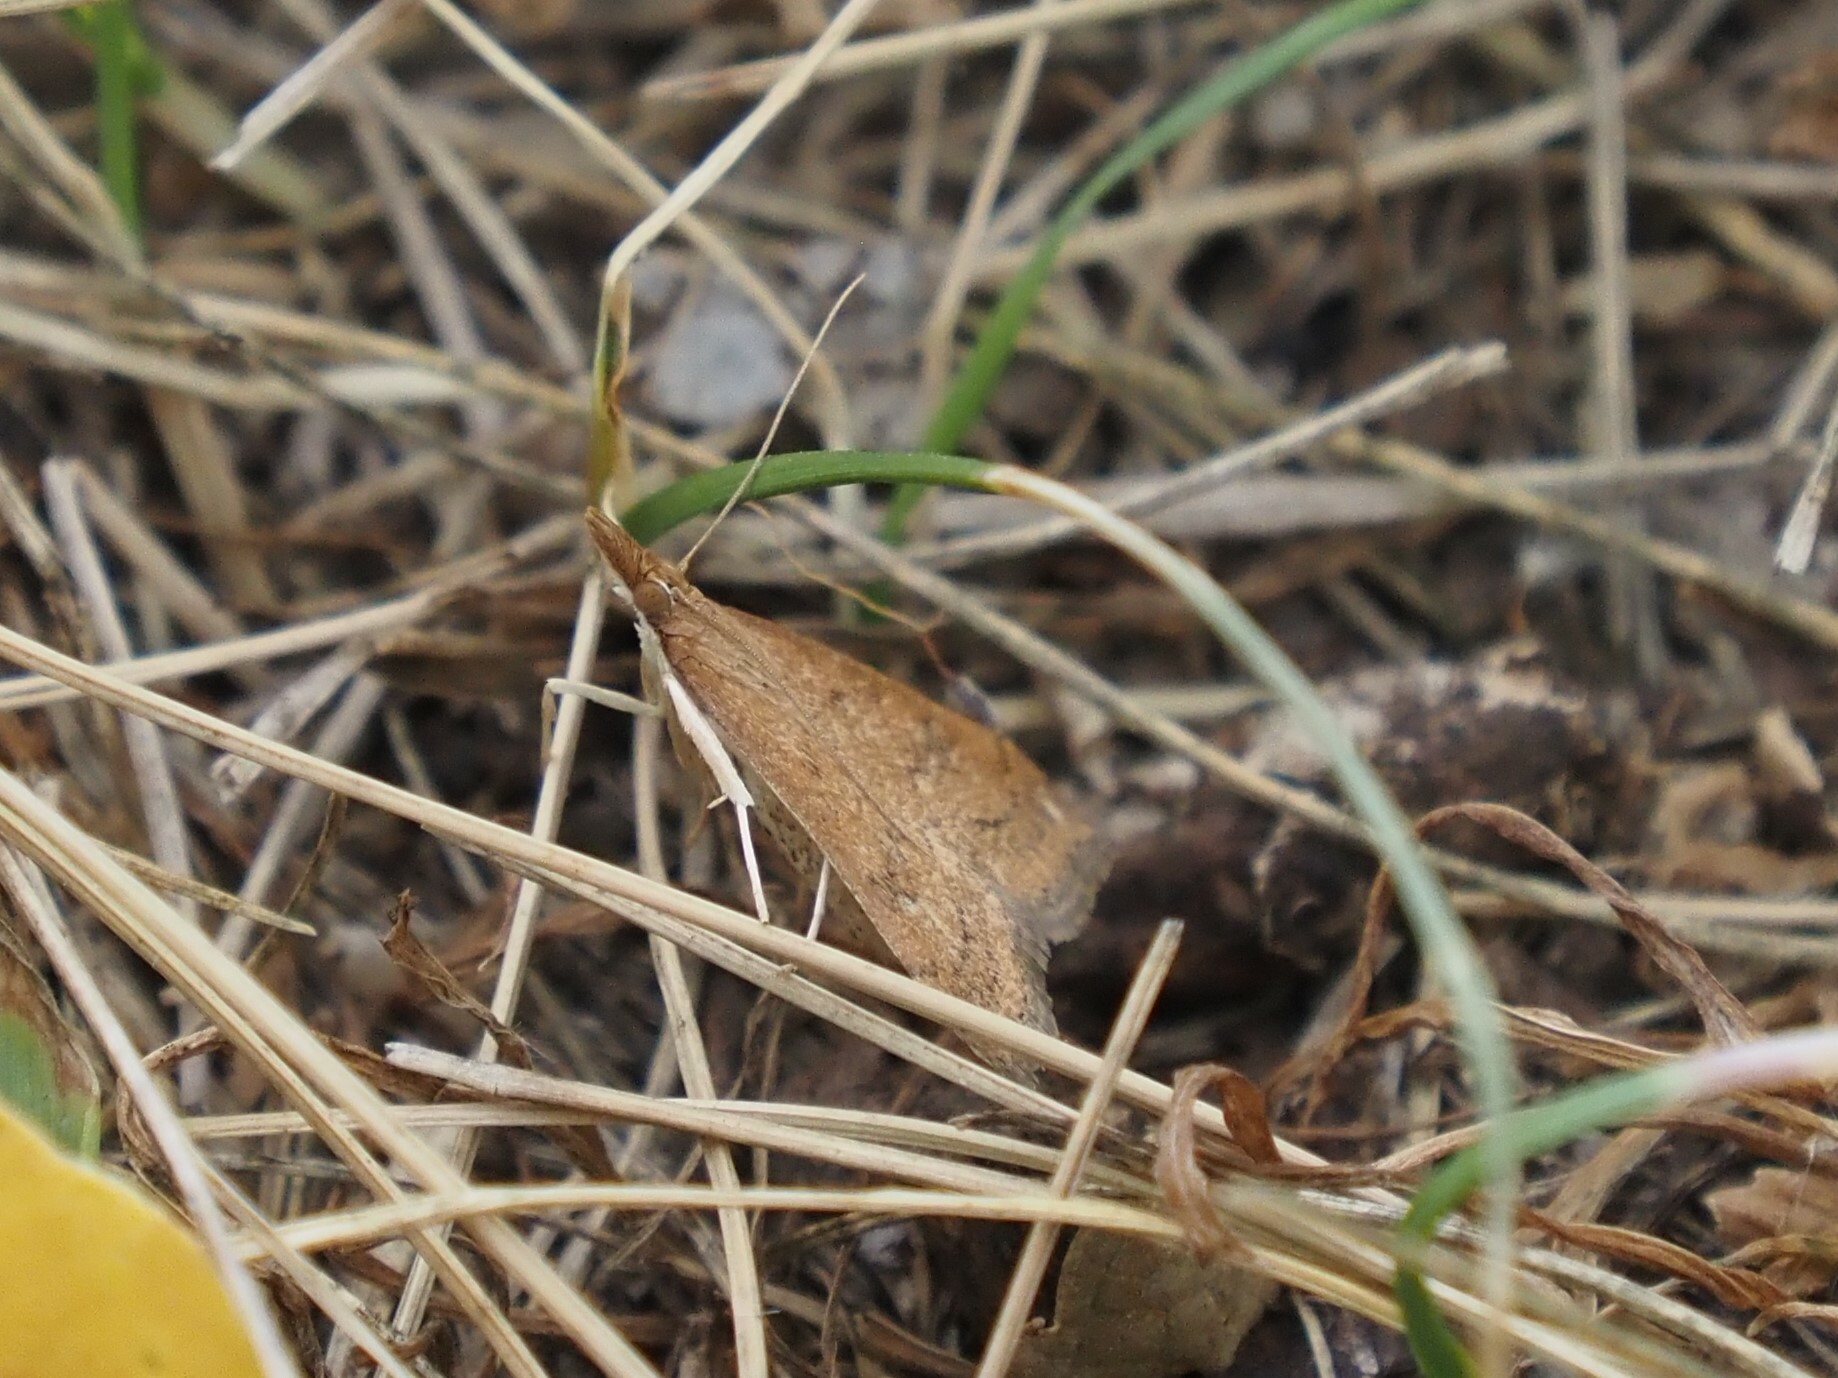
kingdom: Animalia
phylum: Arthropoda
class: Insecta
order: Lepidoptera
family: Crambidae
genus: Udea
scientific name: Udea rubigalis
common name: Celery leaftier moth
